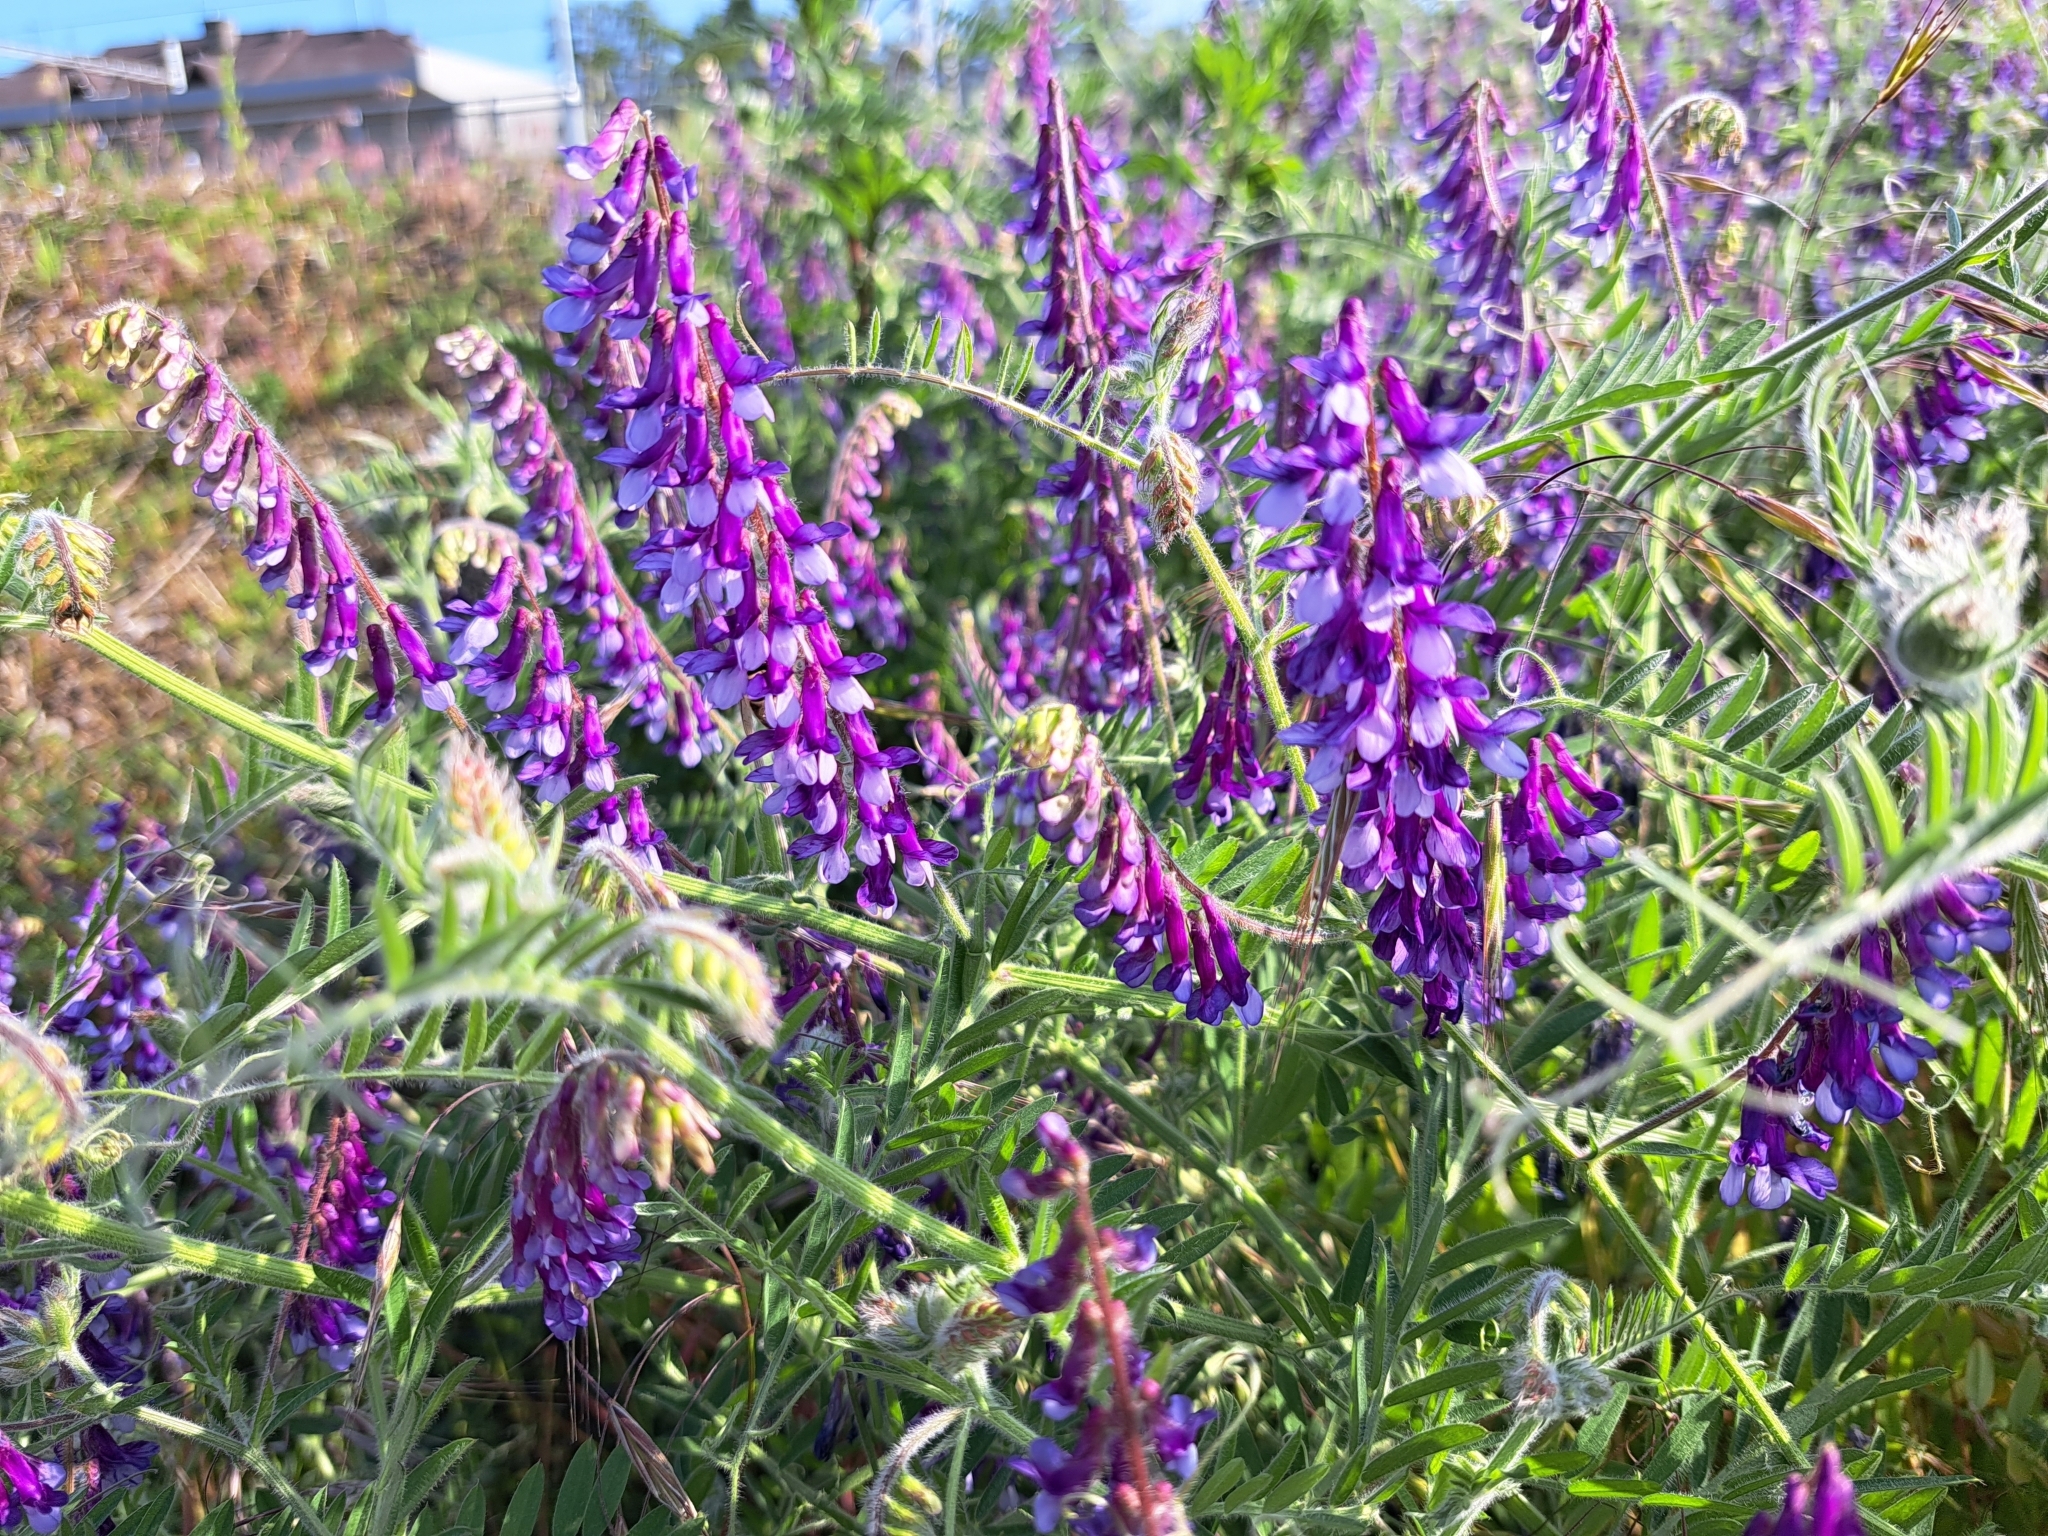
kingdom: Plantae
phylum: Tracheophyta
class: Magnoliopsida
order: Fabales
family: Fabaceae
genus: Vicia
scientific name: Vicia villosa
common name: Fodder vetch
